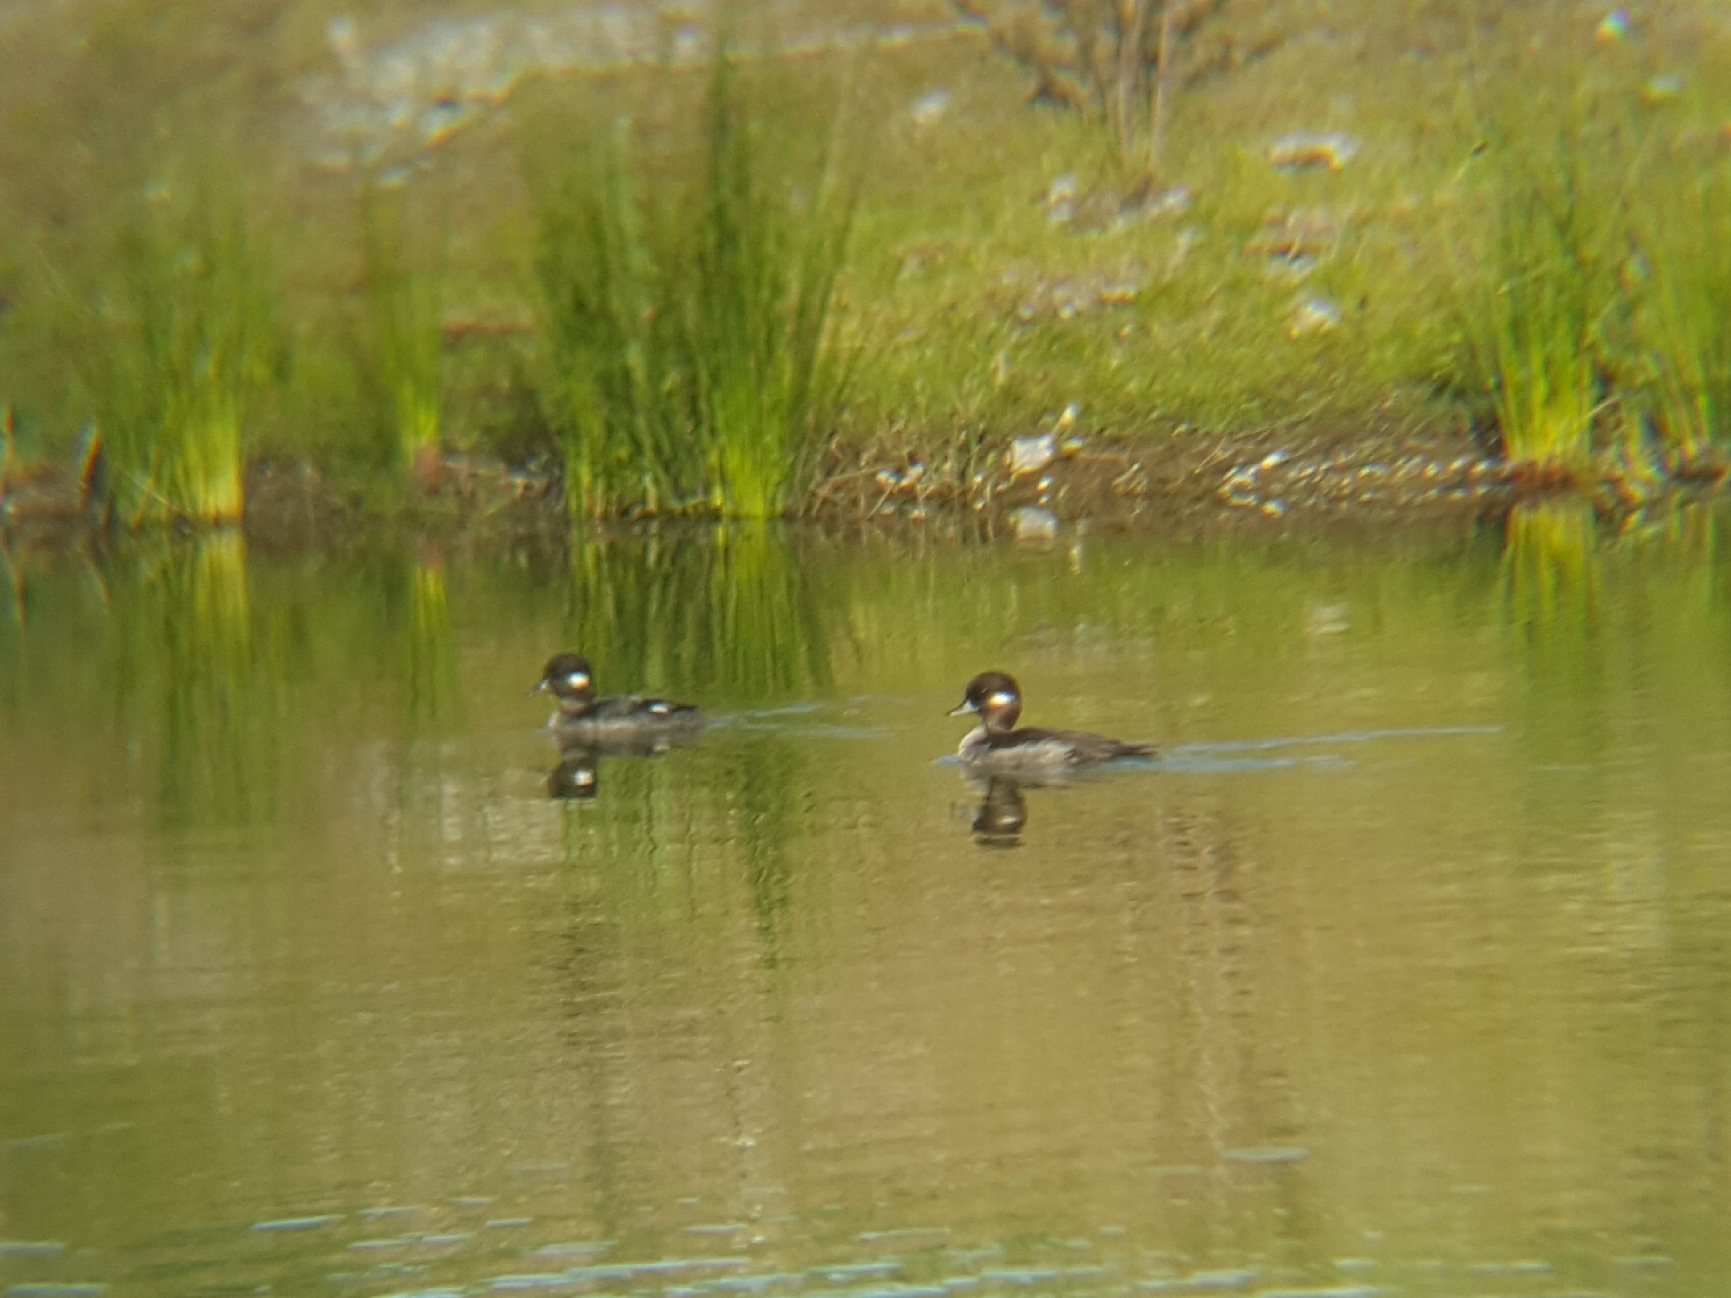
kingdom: Animalia
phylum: Chordata
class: Aves
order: Anseriformes
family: Anatidae
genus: Bucephala
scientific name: Bucephala albeola
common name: Bufflehead
